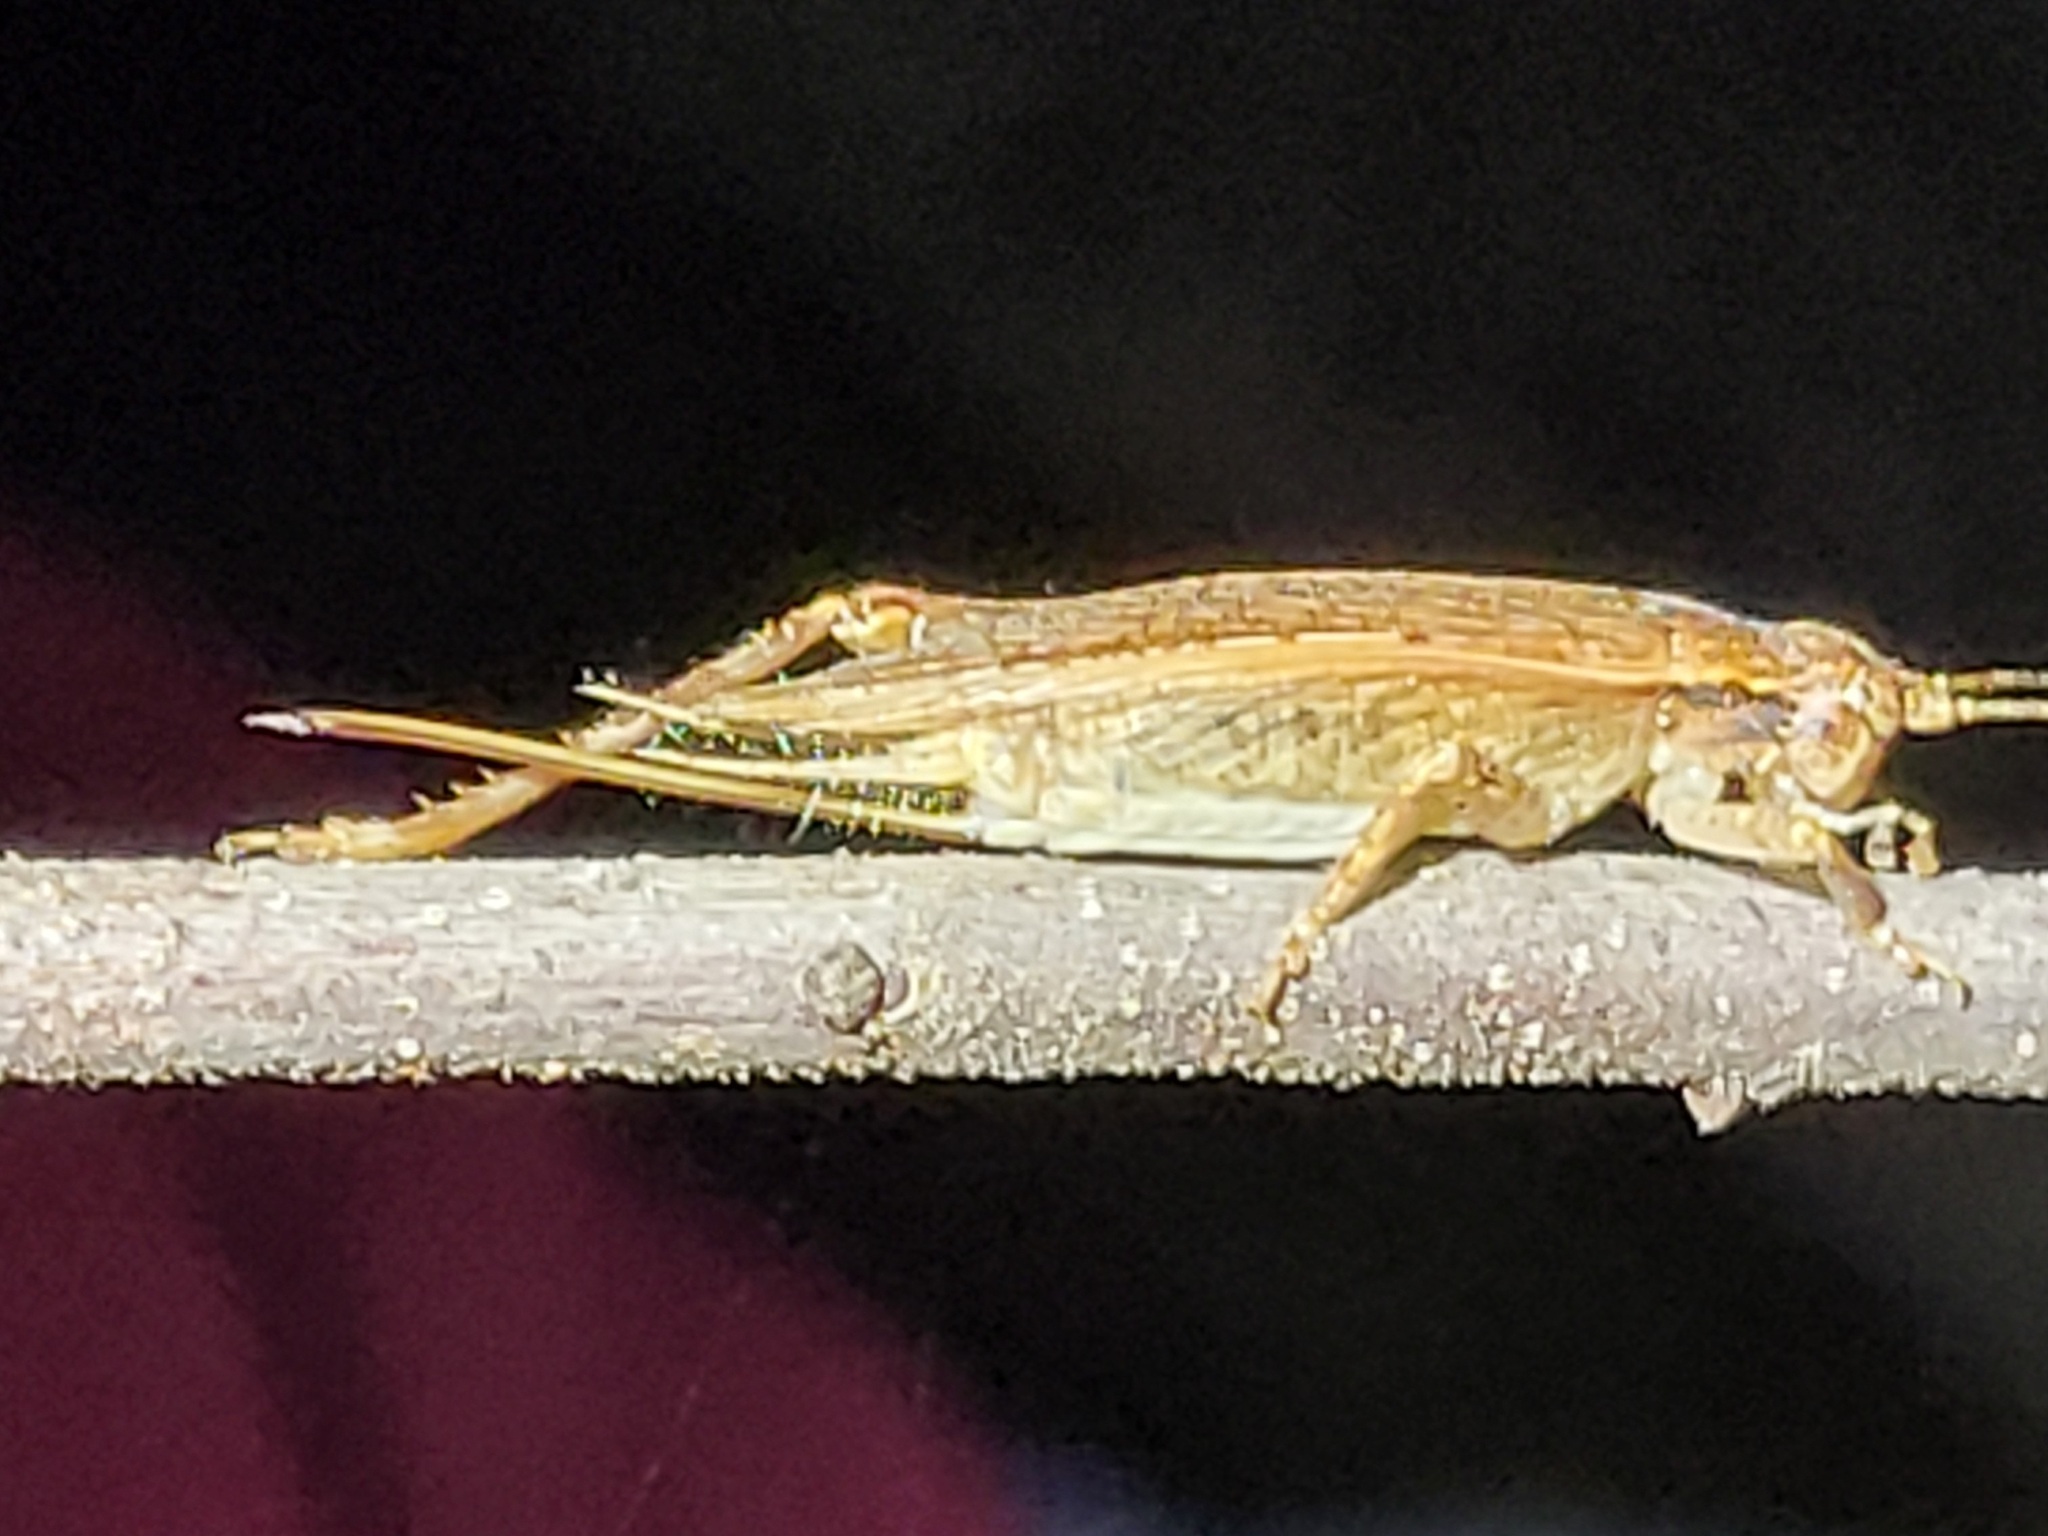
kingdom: Animalia
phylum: Arthropoda
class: Insecta
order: Orthoptera
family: Gryllidae
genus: Hapithus
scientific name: Hapithus luteolira
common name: False jumping bush cricket
